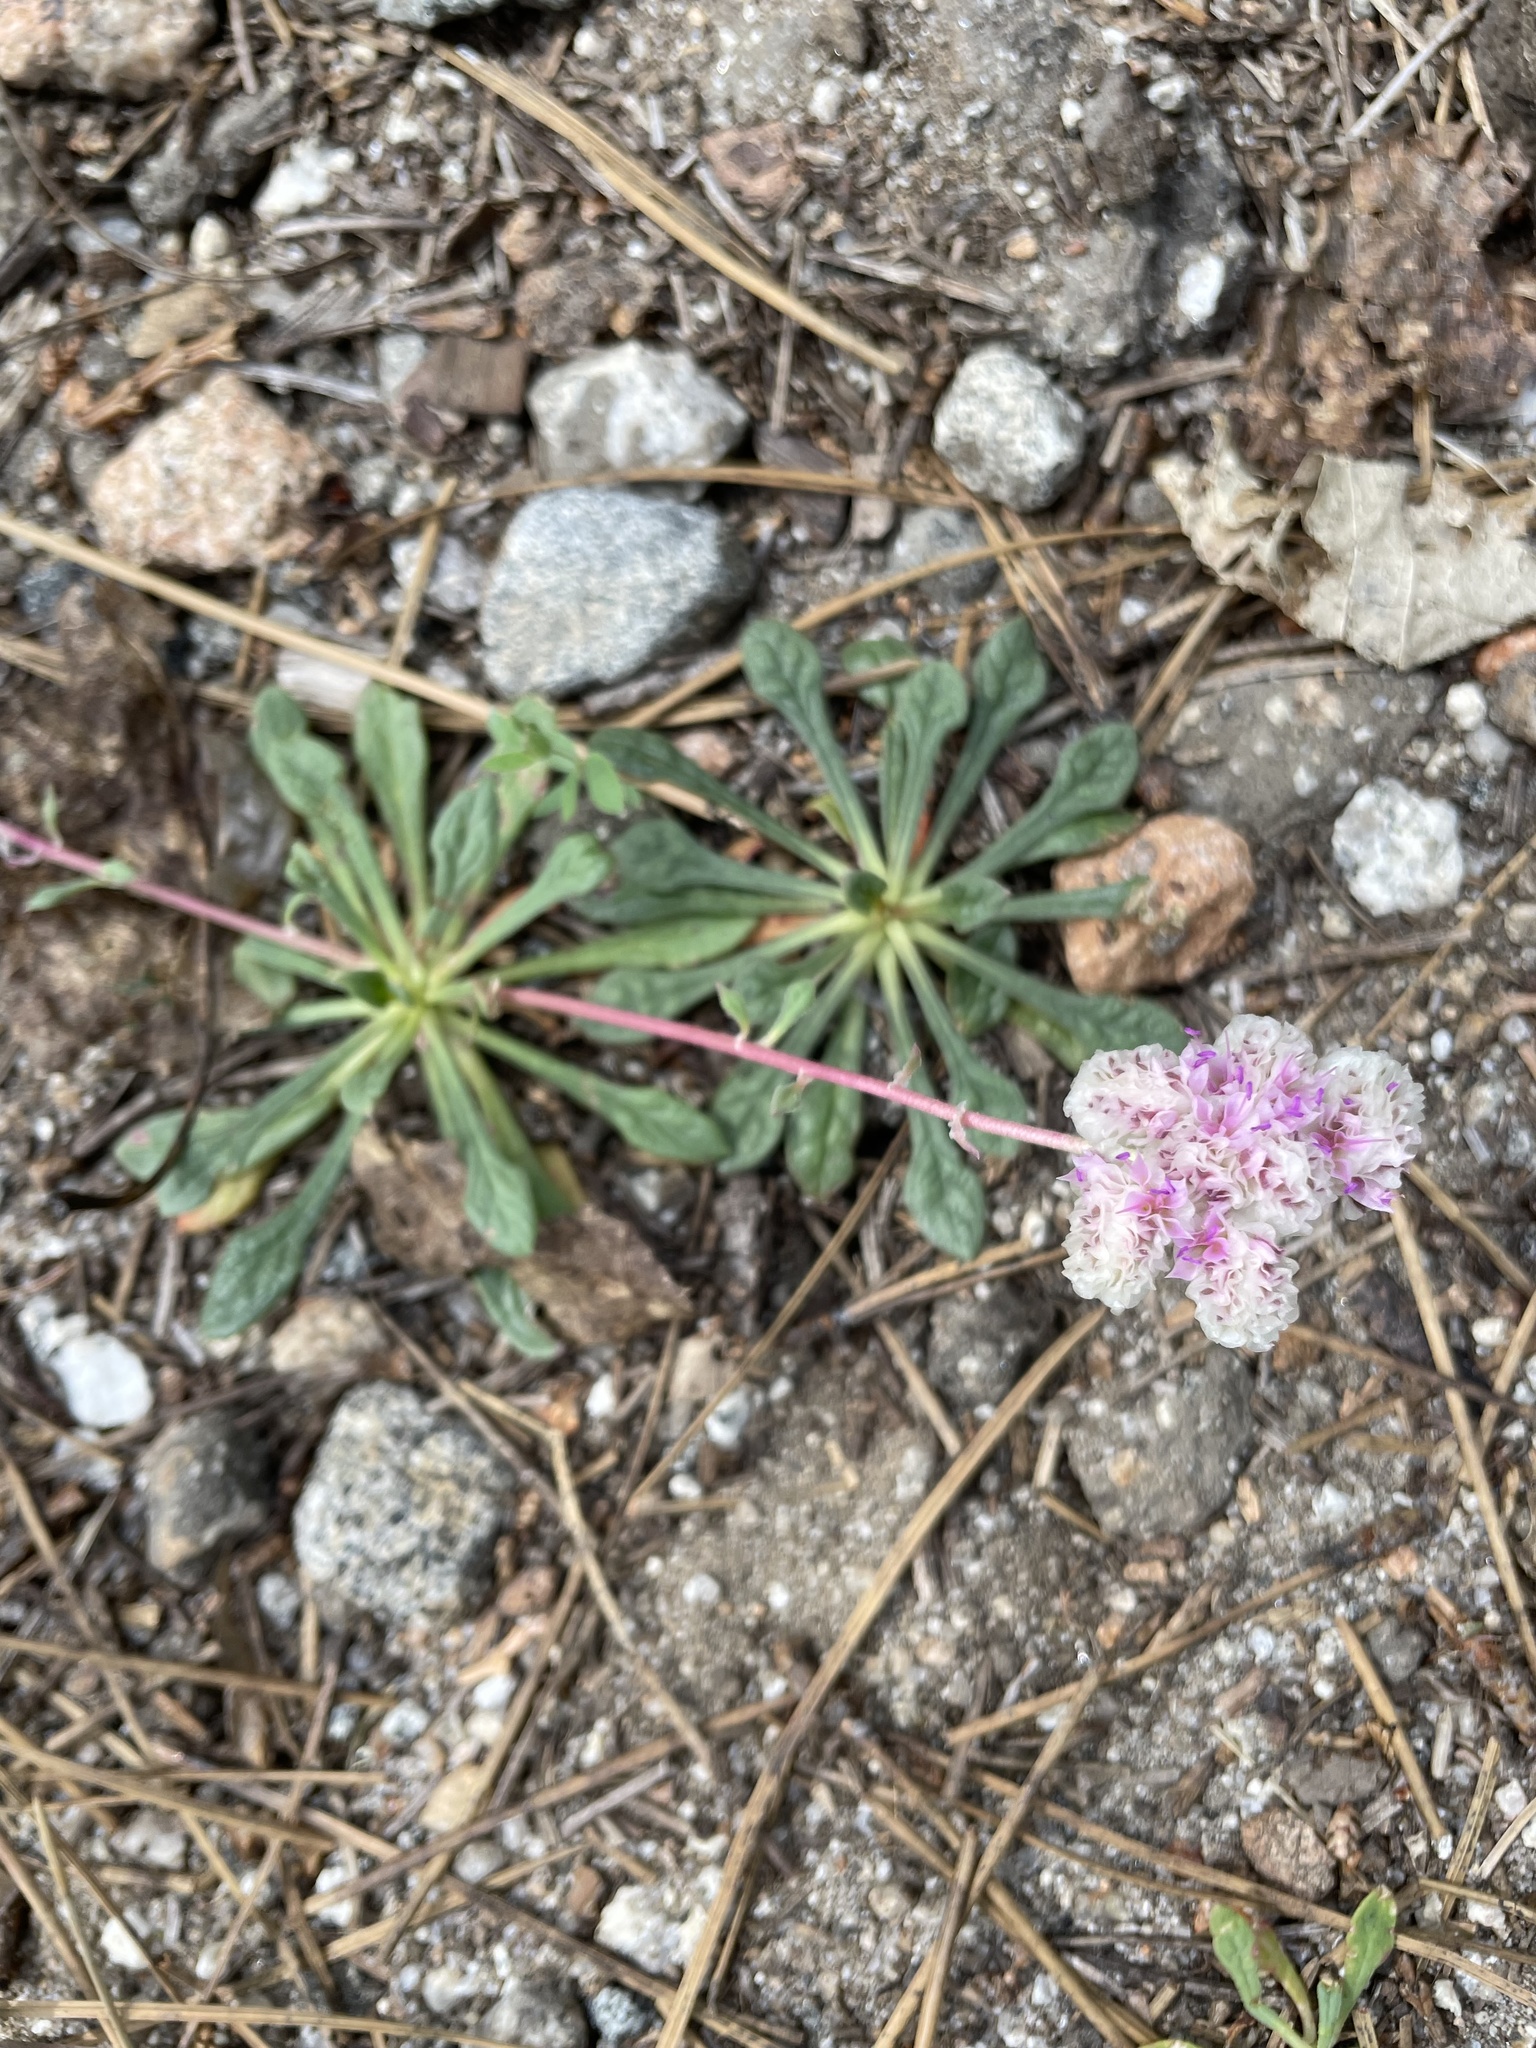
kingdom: Plantae
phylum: Tracheophyta
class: Magnoliopsida
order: Caryophyllales
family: Montiaceae
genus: Calyptridium
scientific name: Calyptridium monospermum
